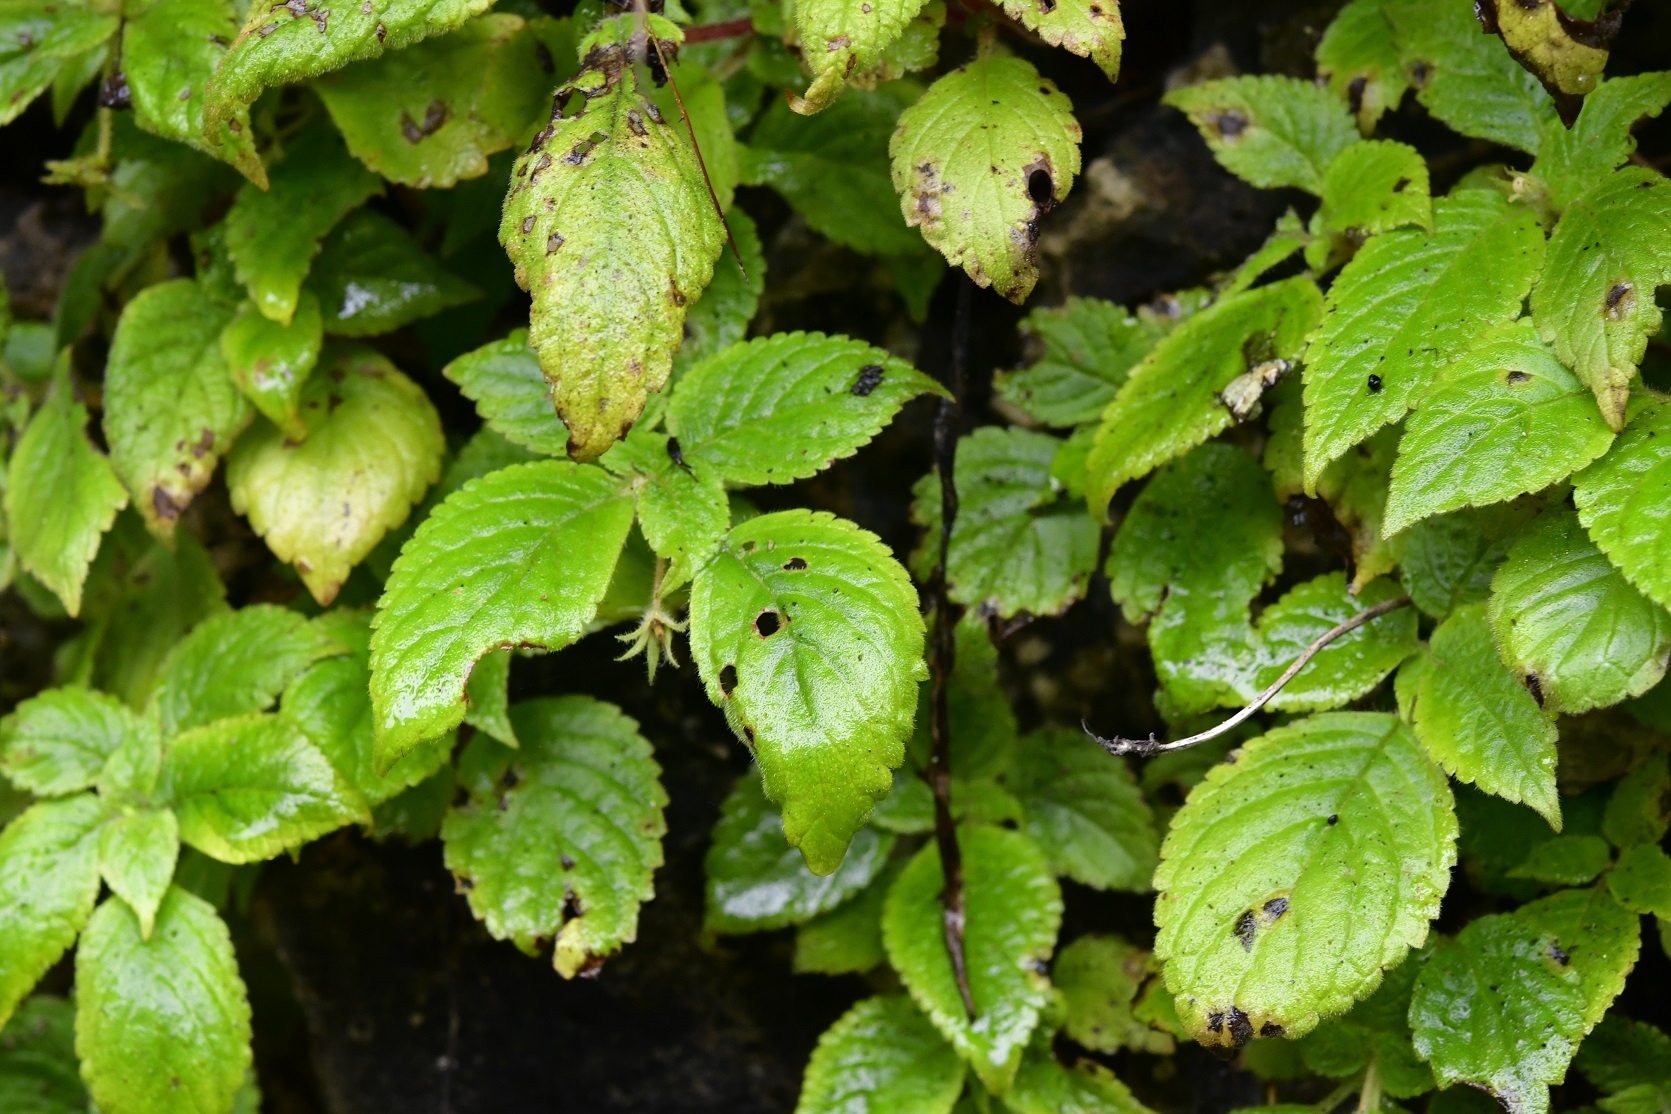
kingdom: Plantae
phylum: Tracheophyta
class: Magnoliopsida
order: Lamiales
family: Gesneriaceae
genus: Achimenes
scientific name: Achimenes misera
